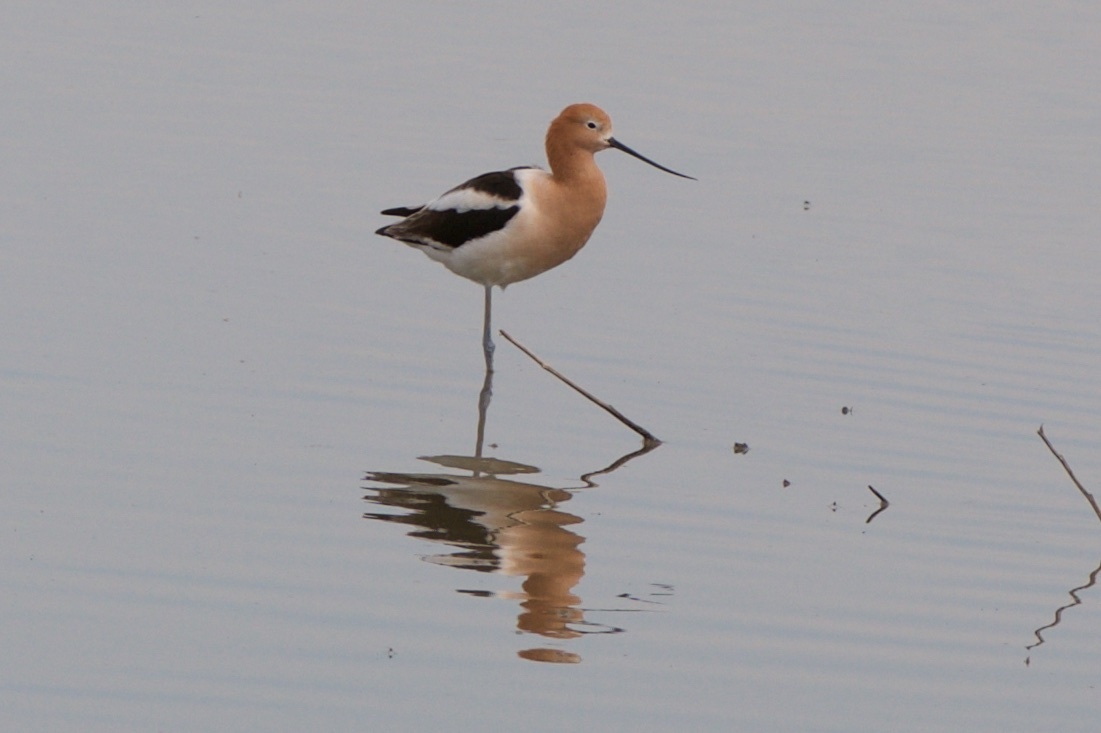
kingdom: Animalia
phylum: Chordata
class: Aves
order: Charadriiformes
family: Recurvirostridae
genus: Recurvirostra
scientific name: Recurvirostra americana
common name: American avocet
